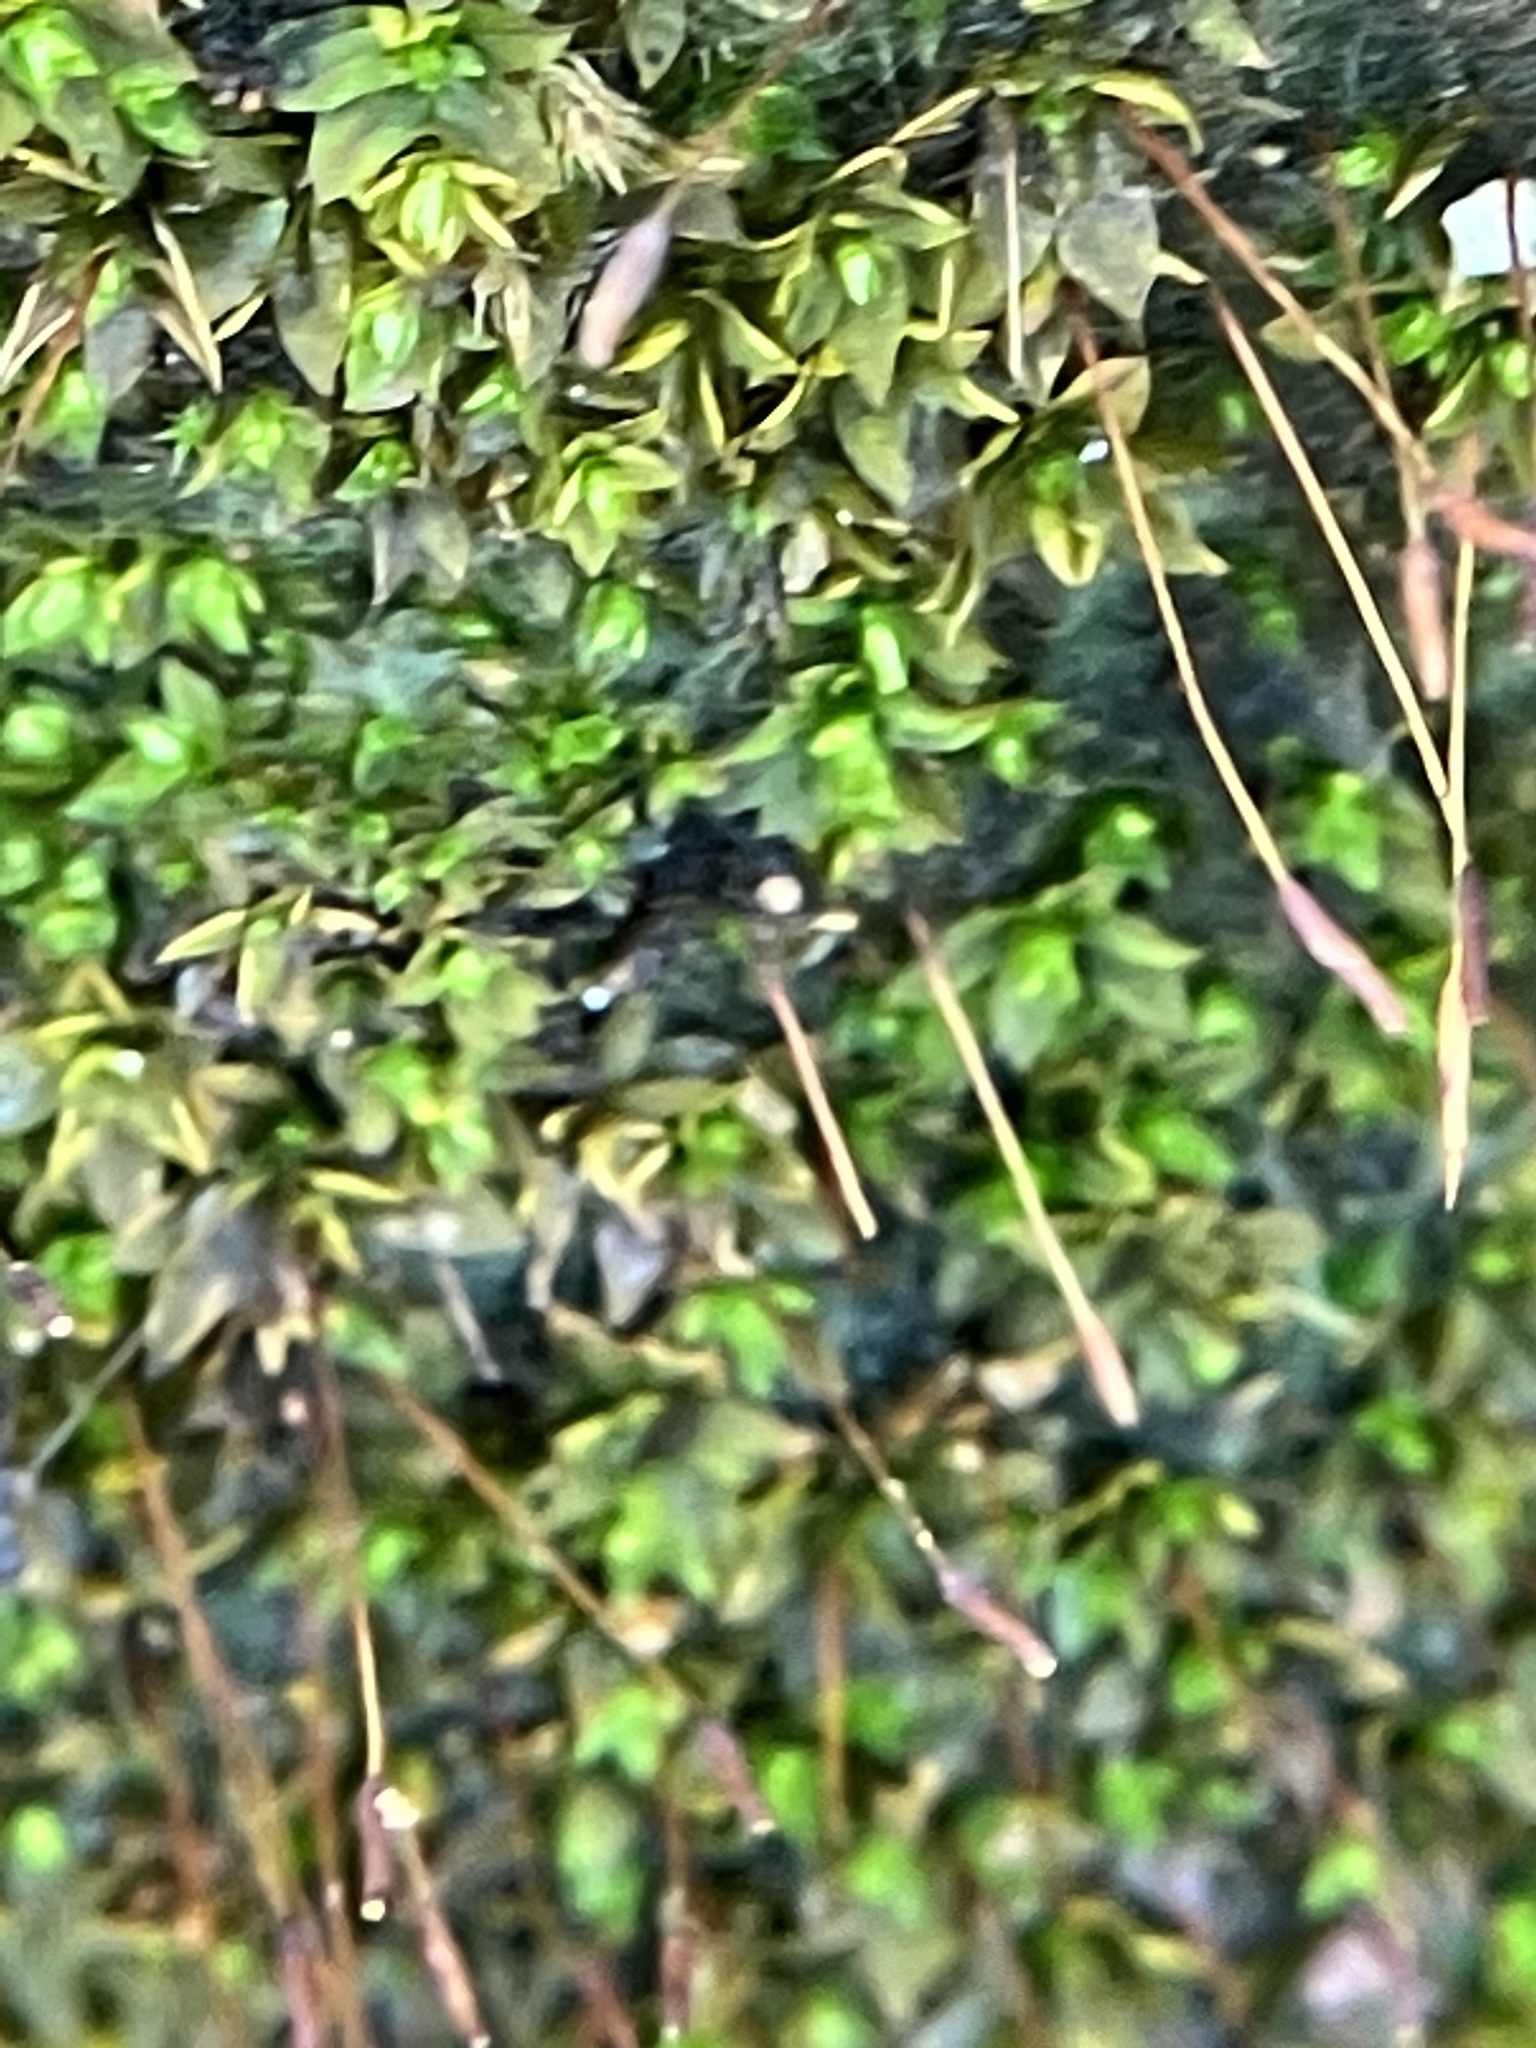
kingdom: Animalia
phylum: Arthropoda
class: Insecta
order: Hymenoptera
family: Formicidae
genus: Paratrechina
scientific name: Paratrechina longicornis
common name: Longhorned crazy ant
